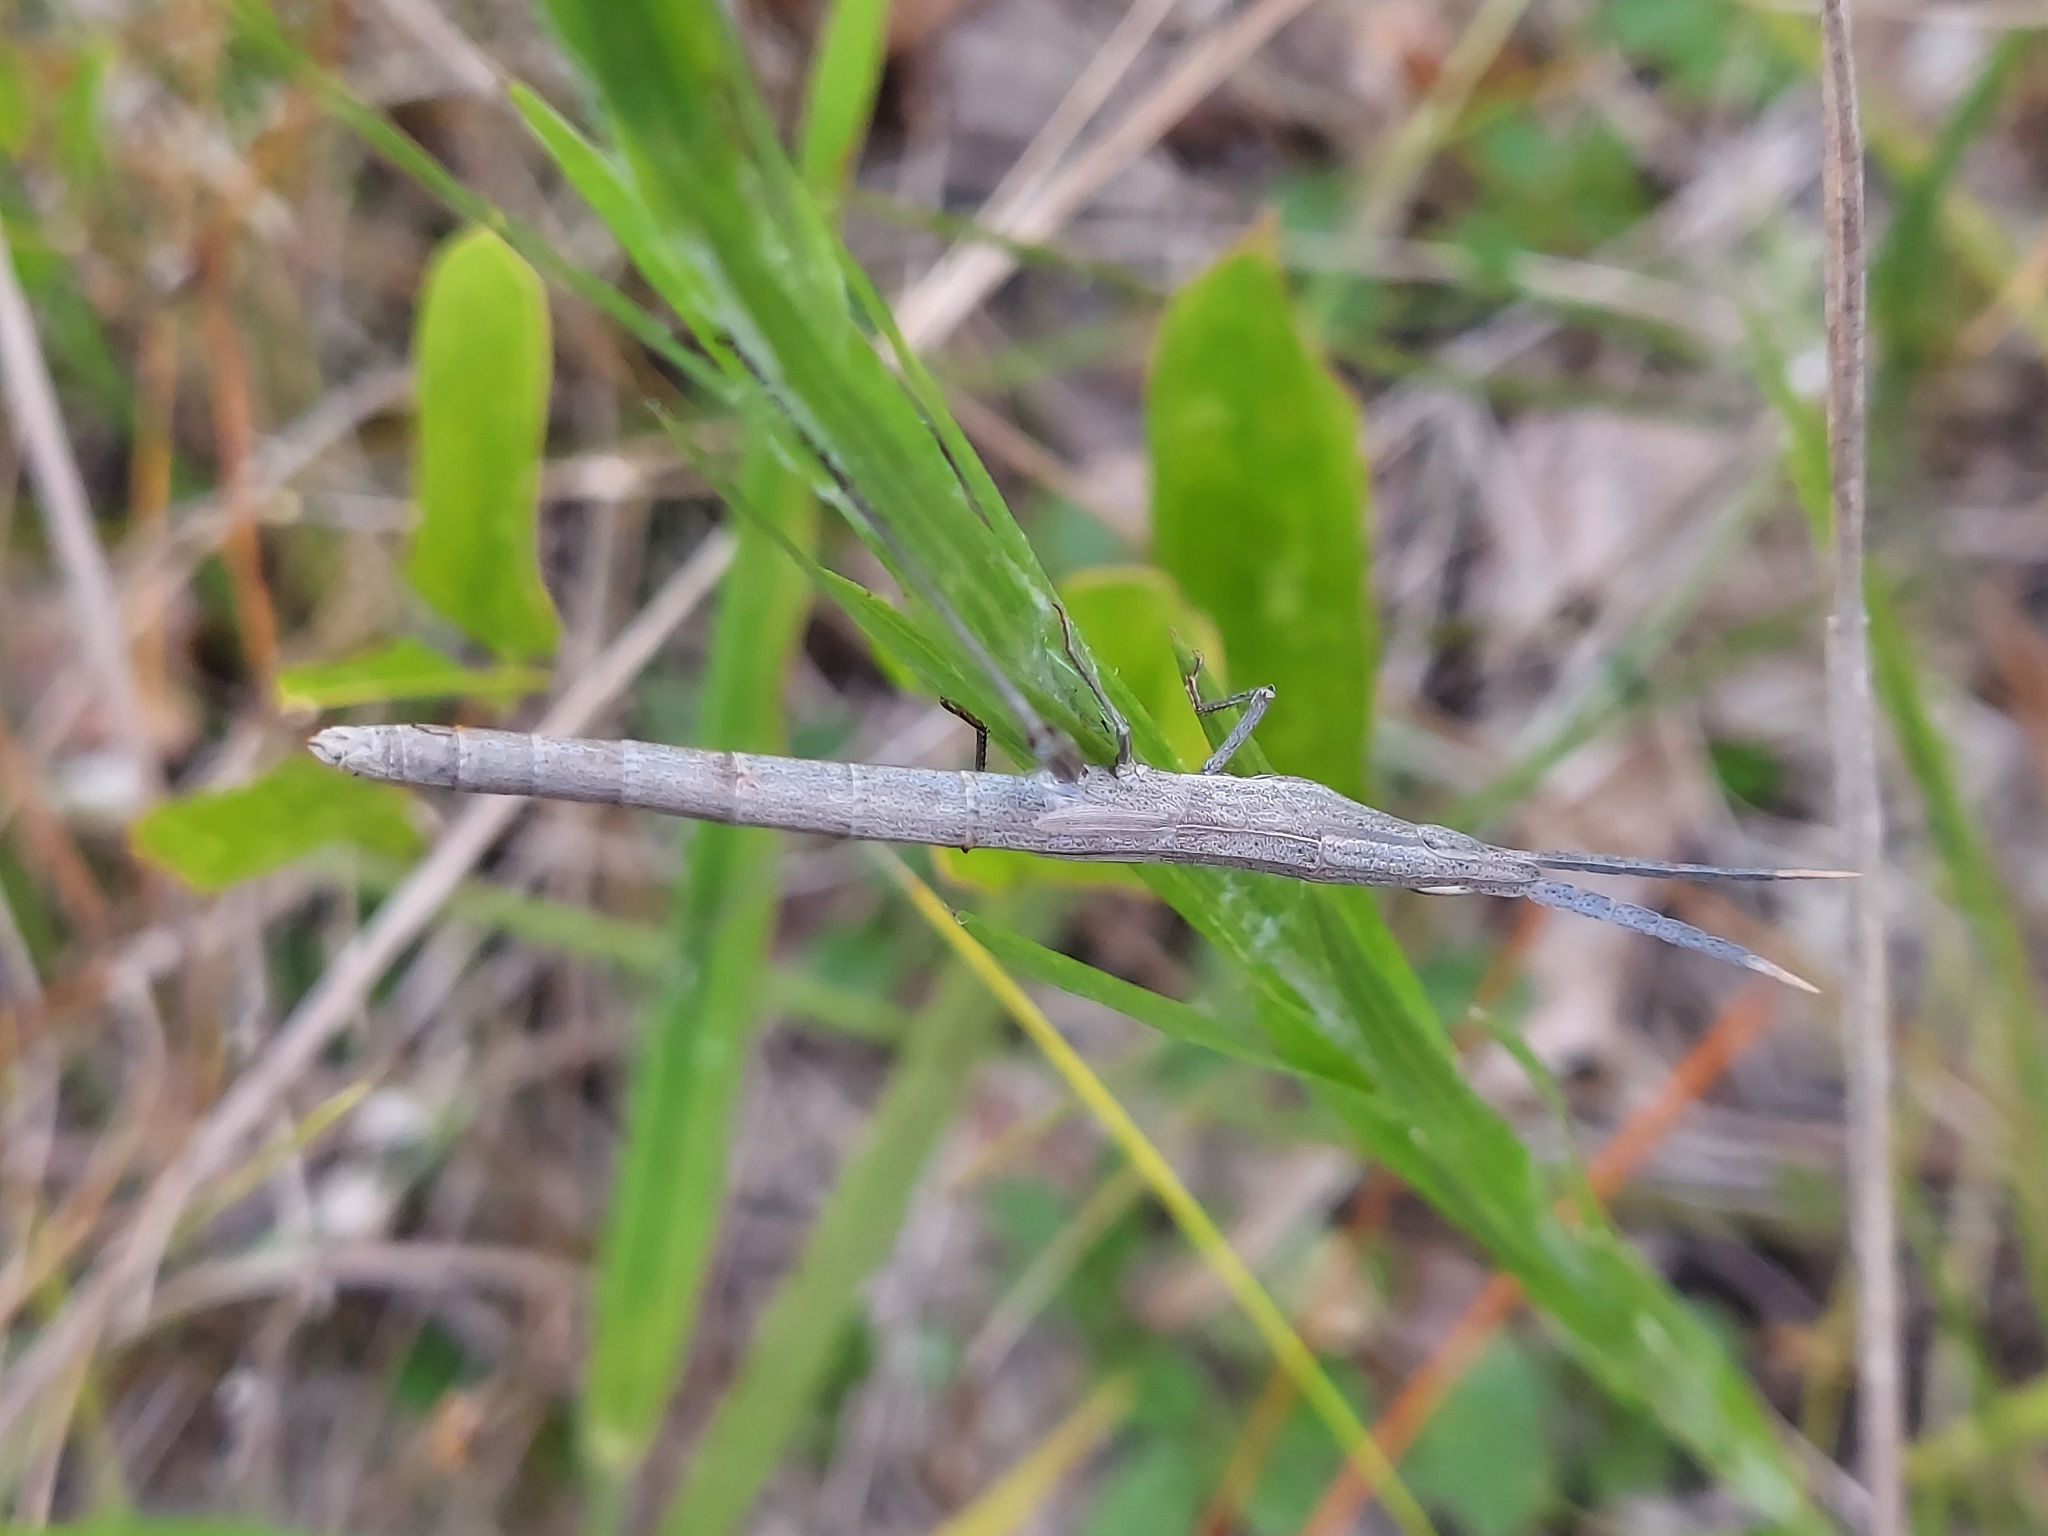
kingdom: Animalia
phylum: Arthropoda
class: Insecta
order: Orthoptera
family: Acrididae
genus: Achurum
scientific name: Achurum carinatum
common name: Long-headed toothpick grasshopper
